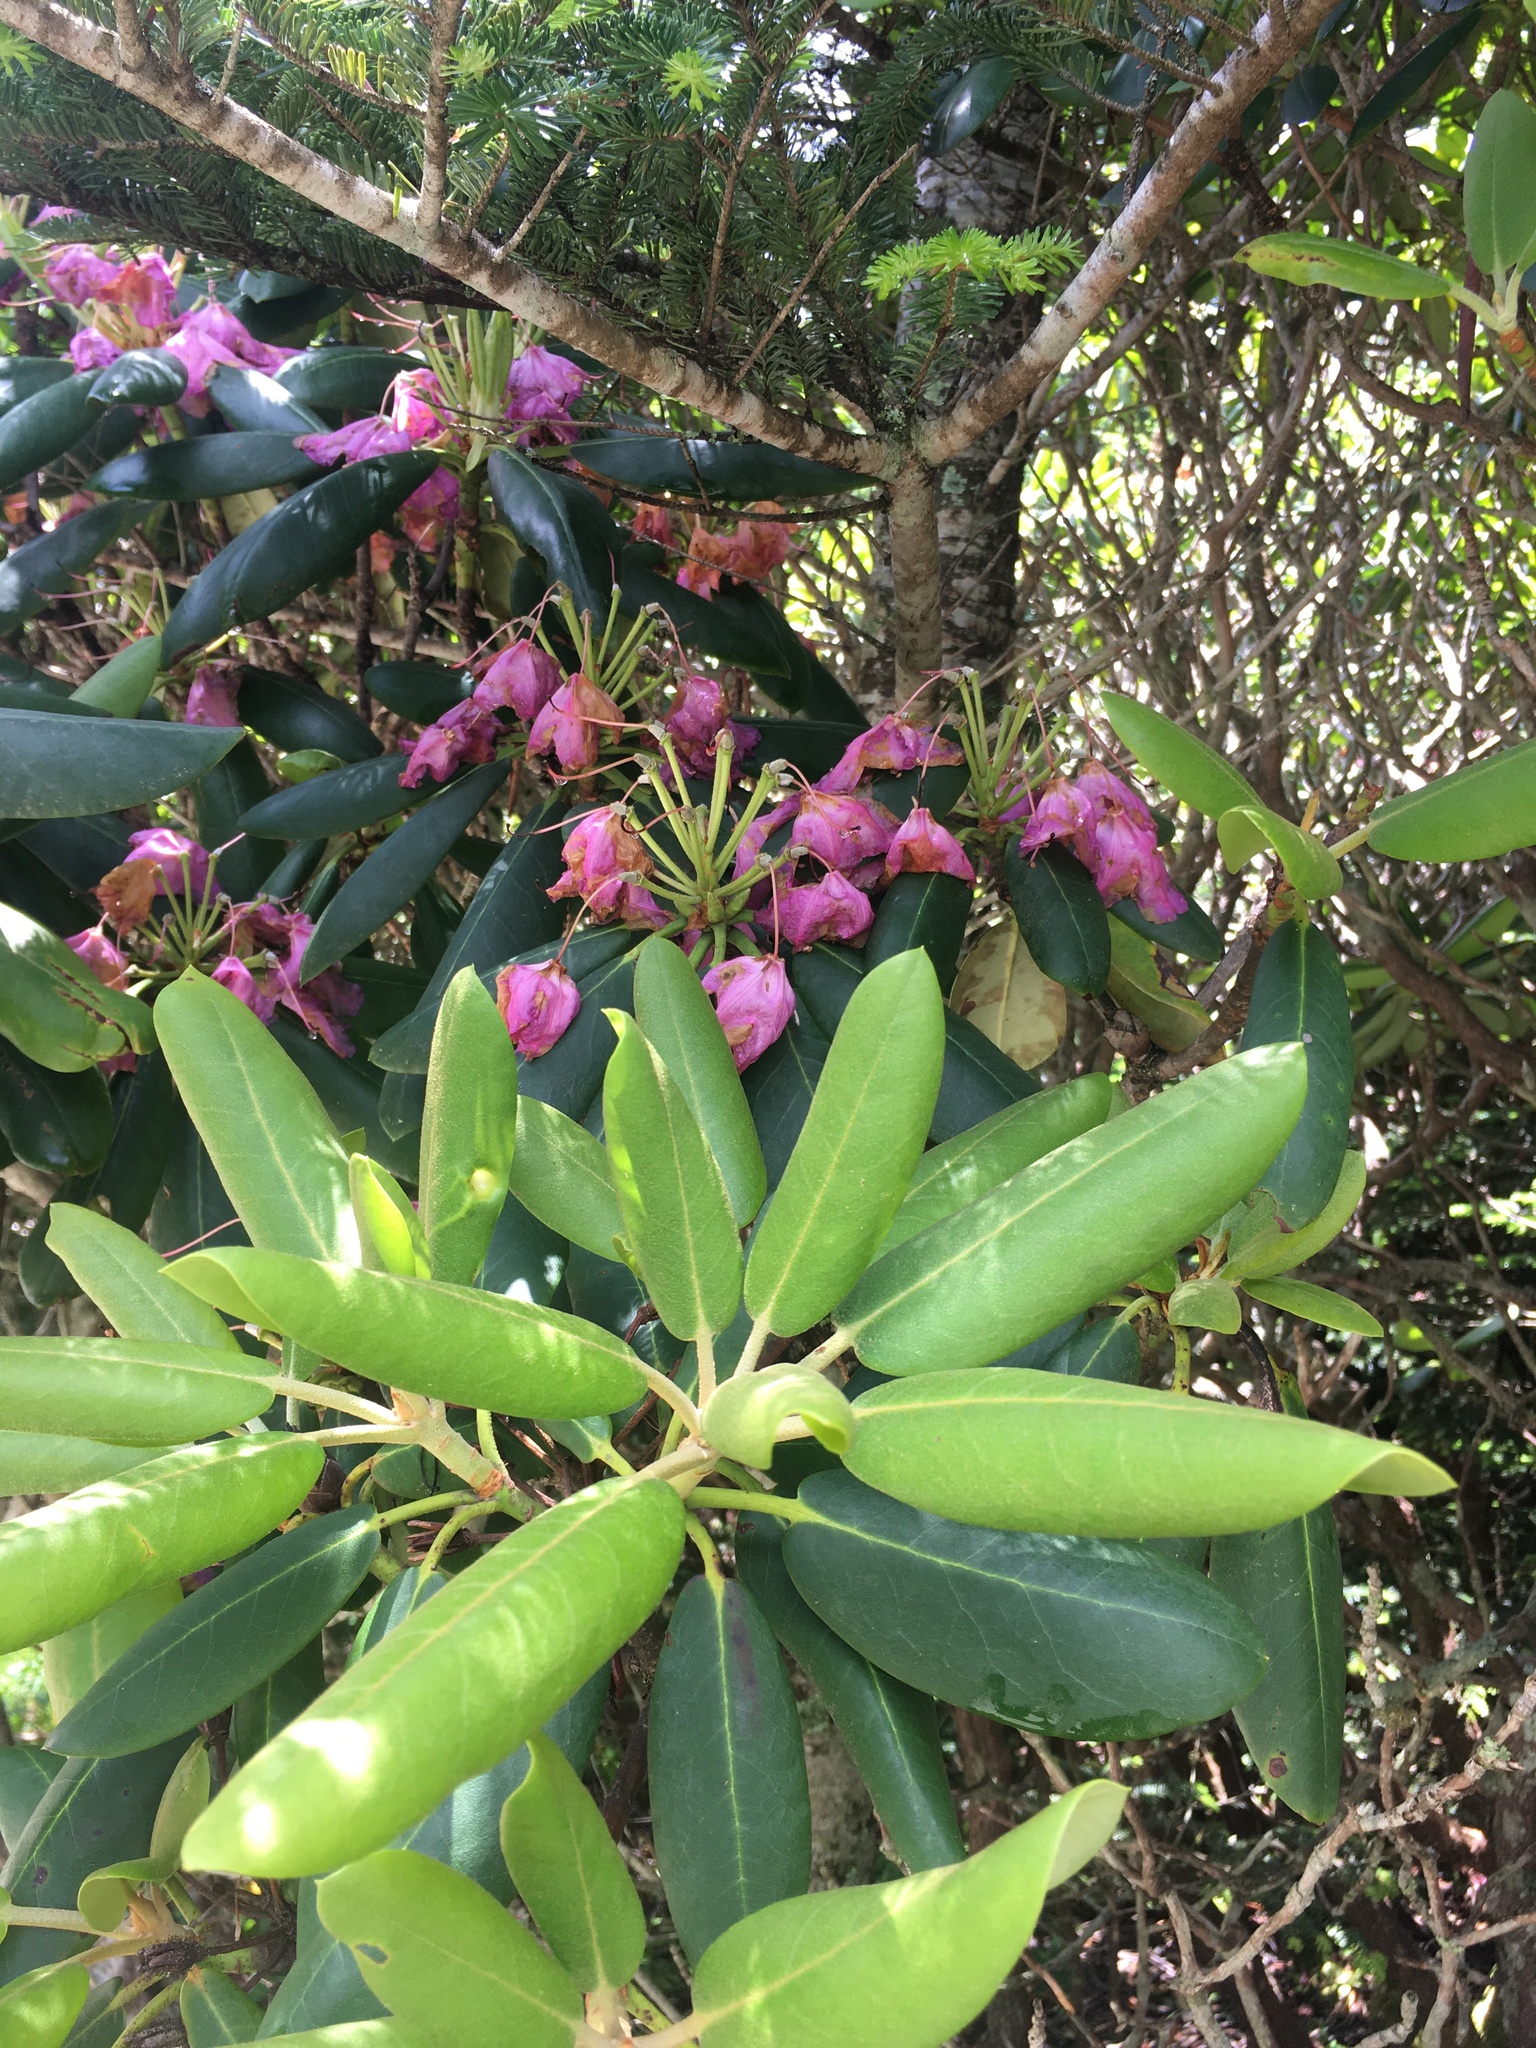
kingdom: Plantae
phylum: Tracheophyta
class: Magnoliopsida
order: Ericales
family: Ericaceae
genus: Rhododendron
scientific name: Rhododendron catawbiense
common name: Catawba rhododendron
